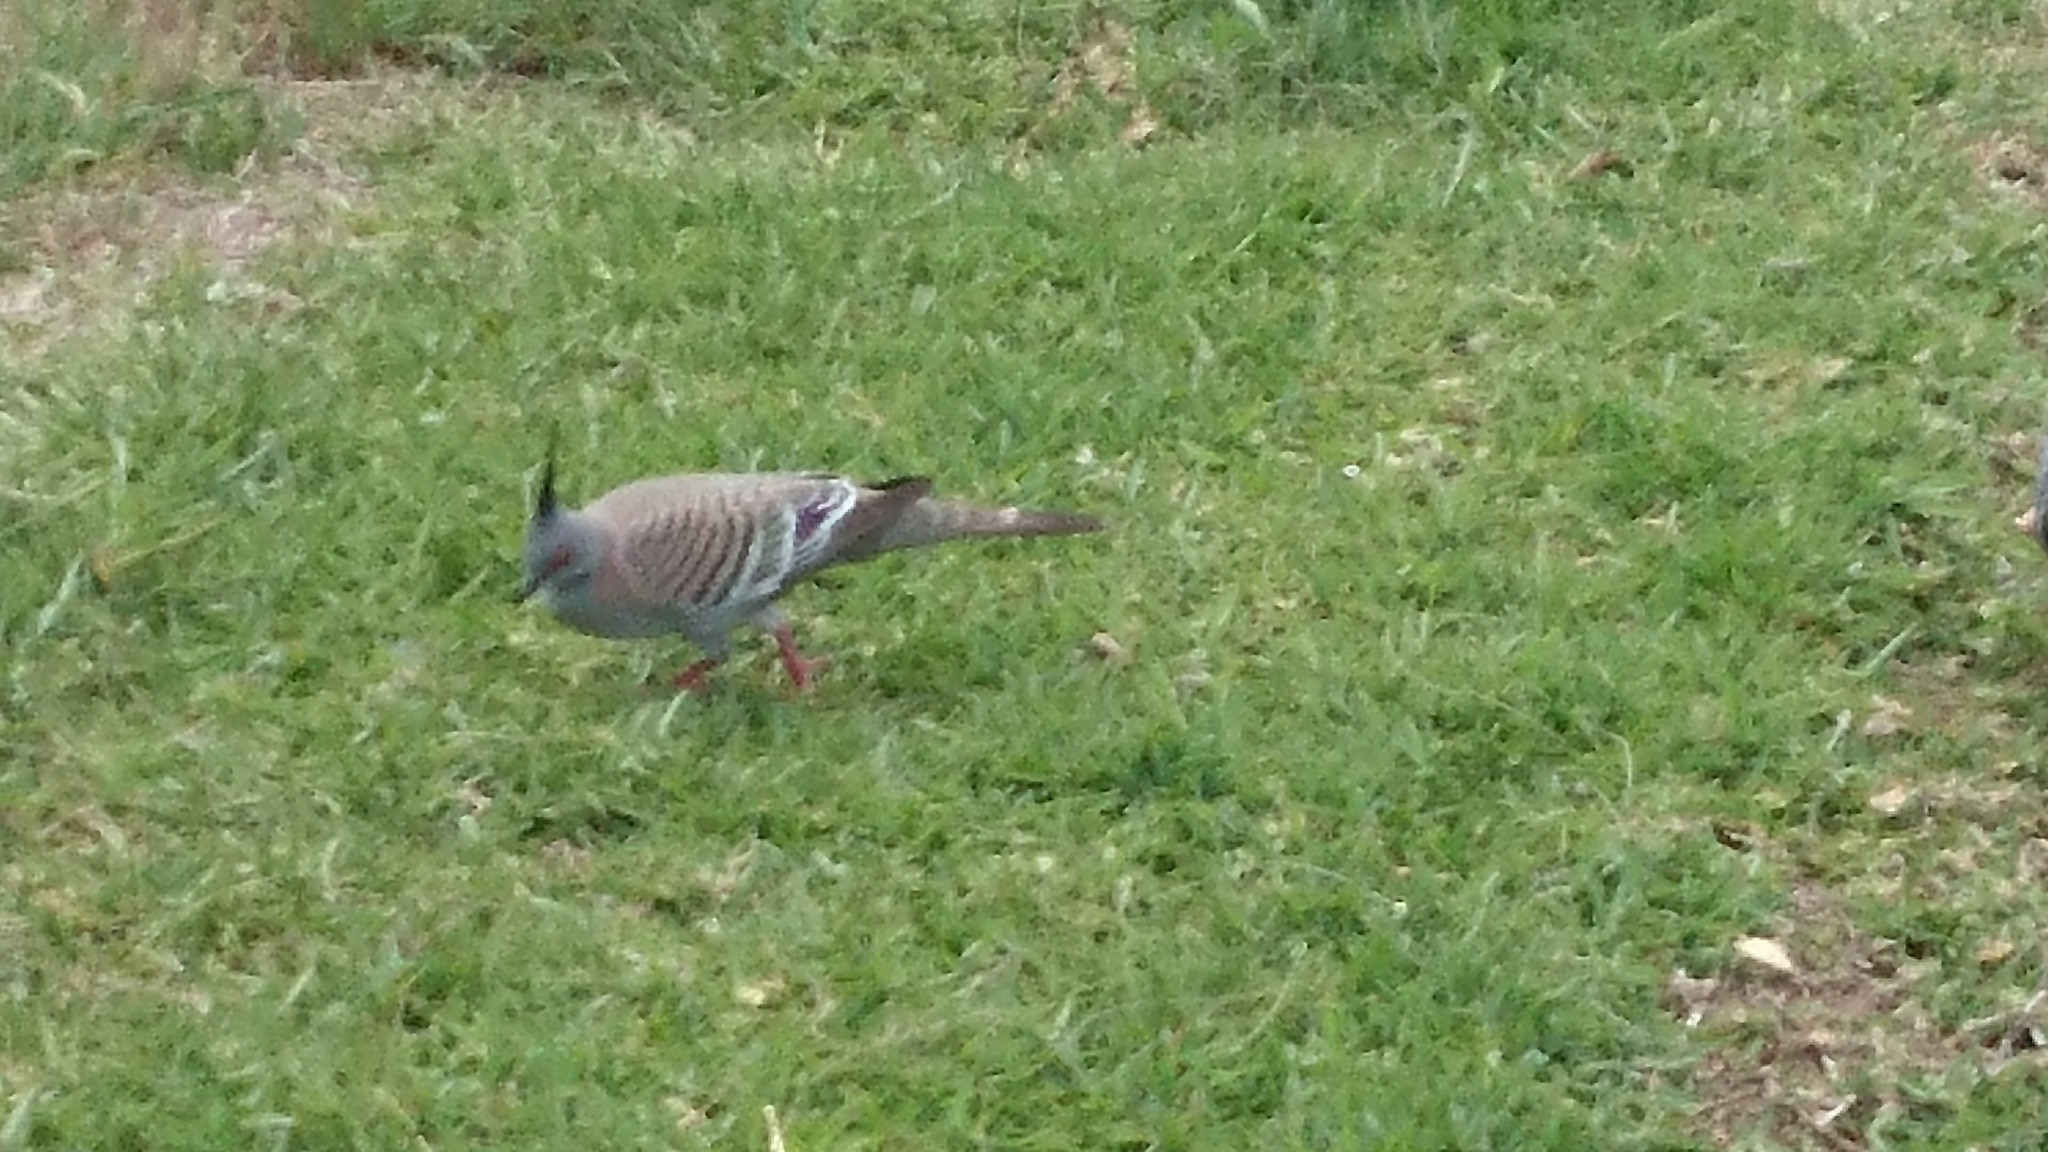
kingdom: Animalia
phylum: Chordata
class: Aves
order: Columbiformes
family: Columbidae
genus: Ocyphaps
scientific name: Ocyphaps lophotes
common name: Crested pigeon
